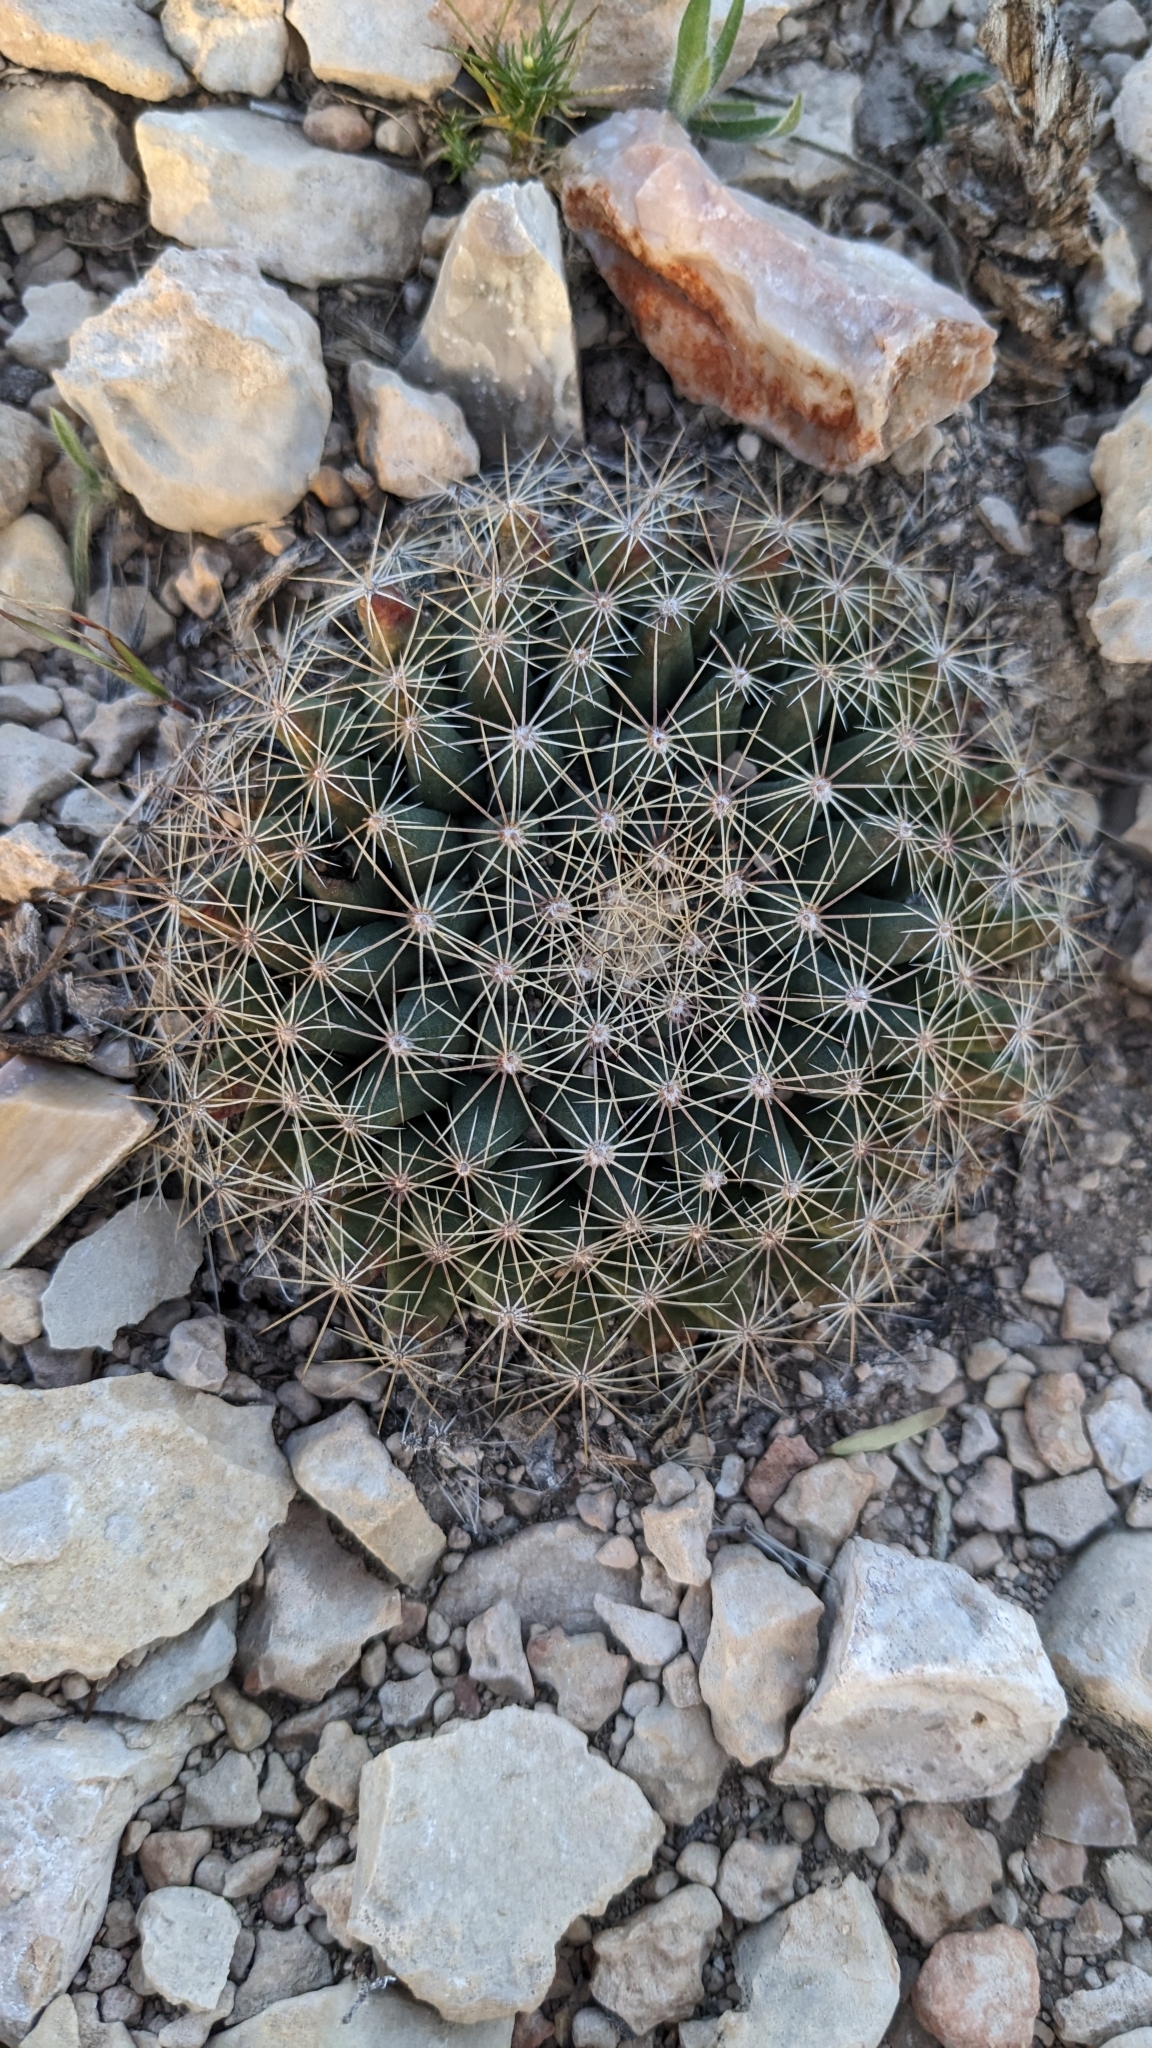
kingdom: Plantae
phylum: Tracheophyta
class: Magnoliopsida
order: Caryophyllales
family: Cactaceae
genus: Mammillaria
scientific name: Mammillaria heyderi
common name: Little nipple cactus
